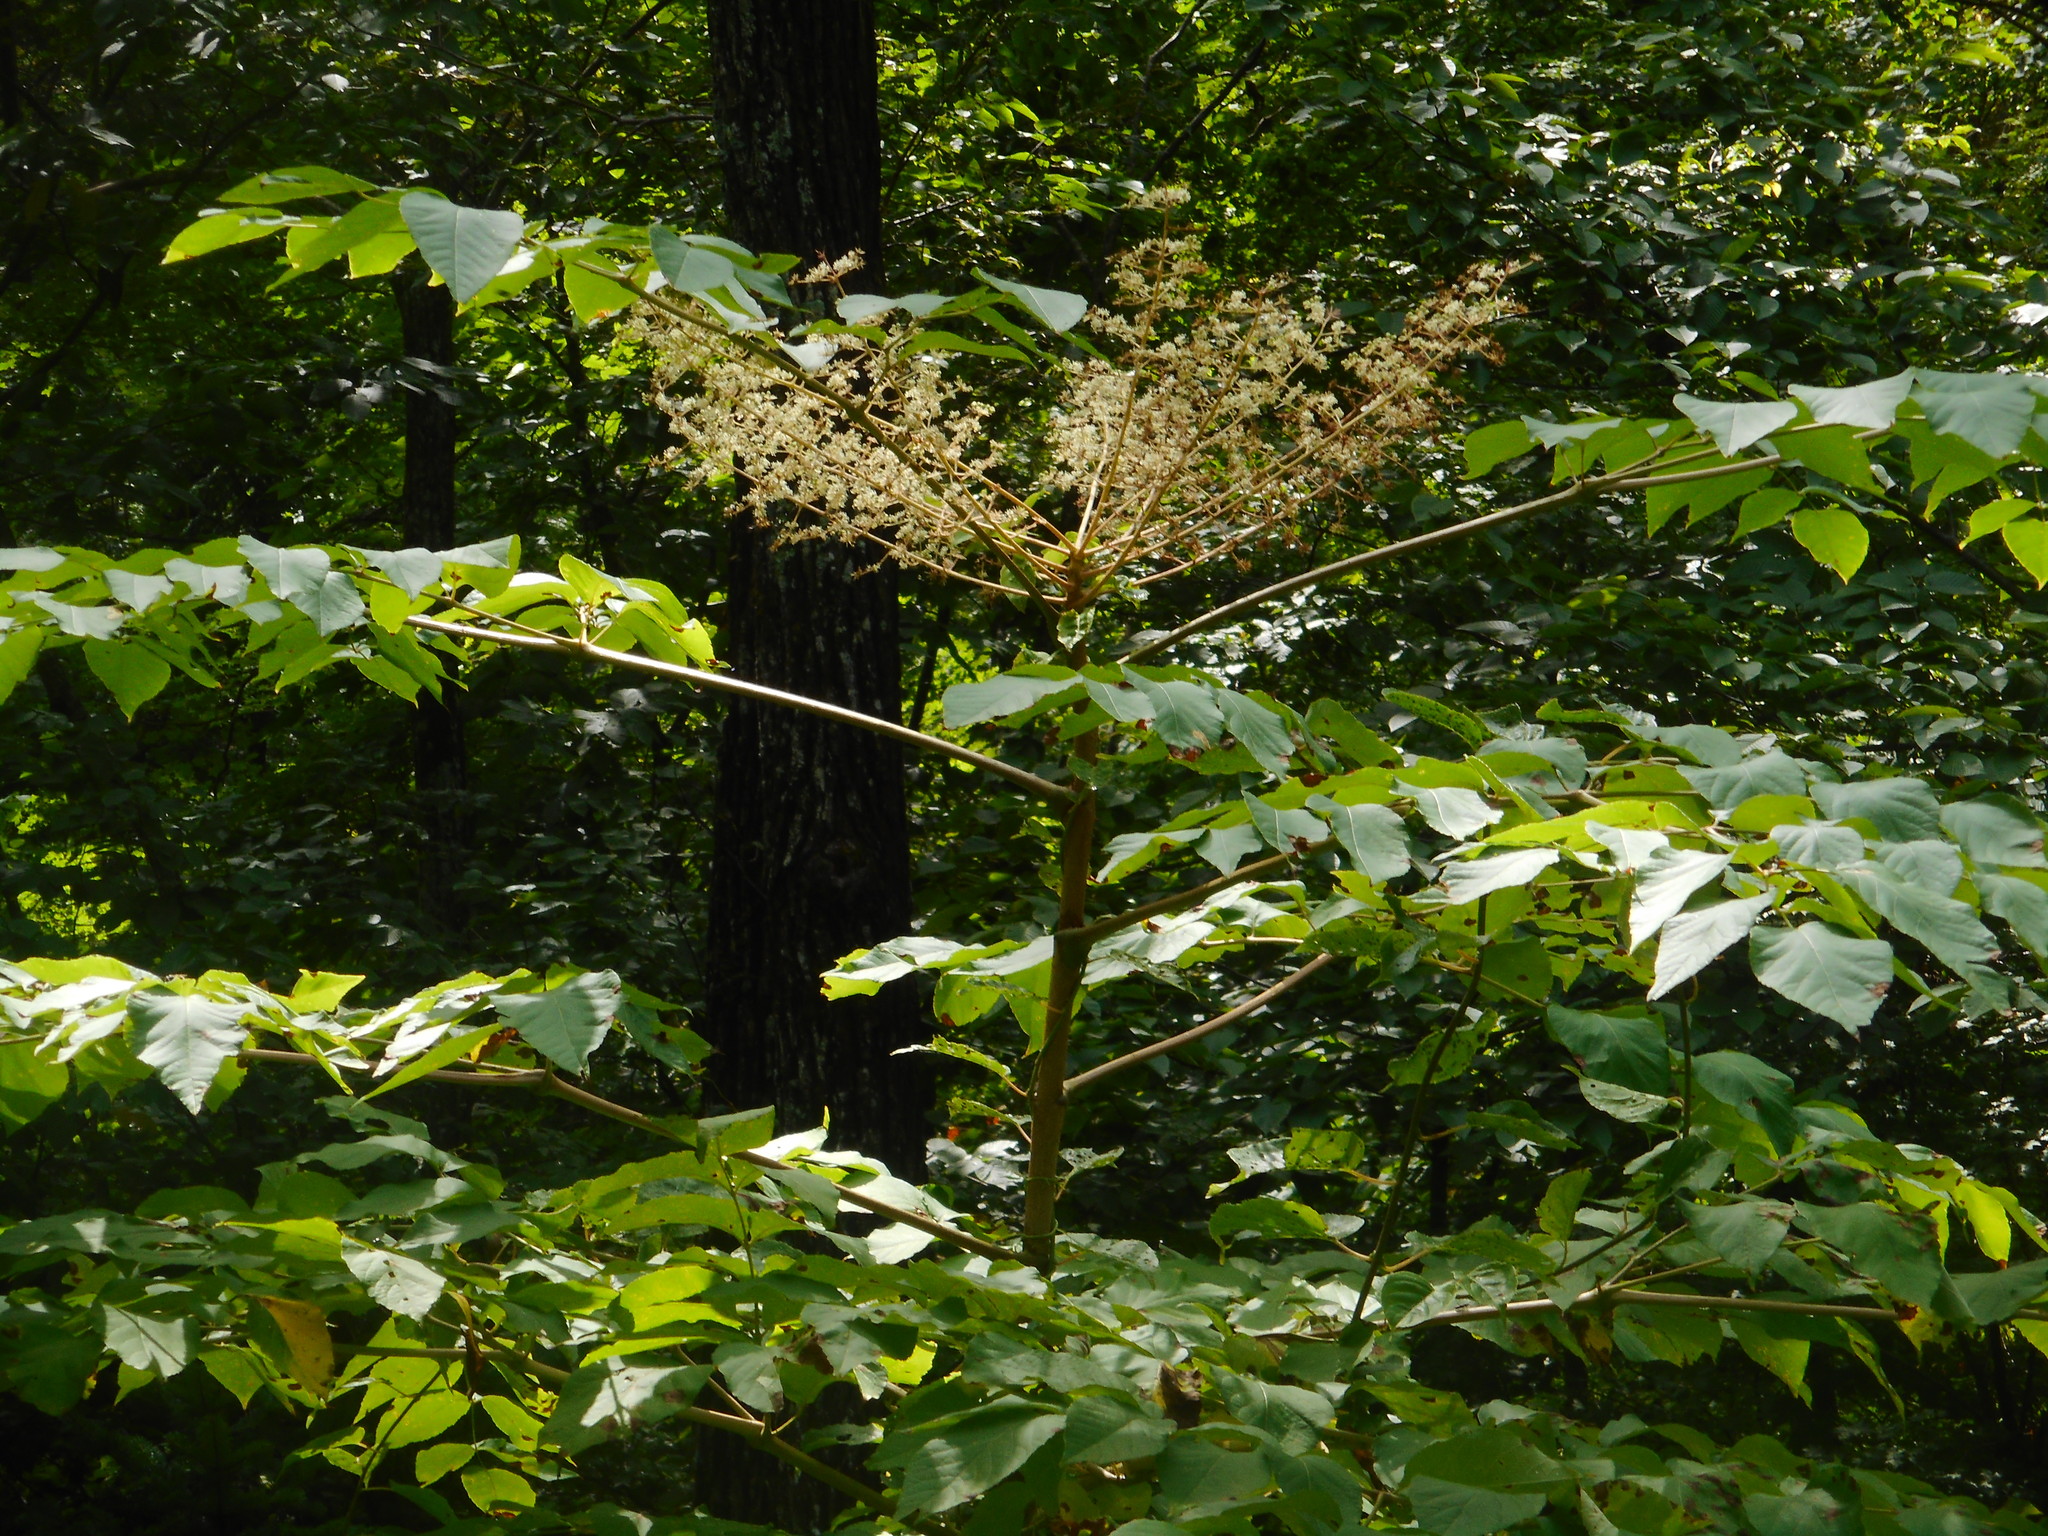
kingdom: Plantae
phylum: Tracheophyta
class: Magnoliopsida
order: Apiales
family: Araliaceae
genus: Aralia
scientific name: Aralia elata
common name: Japanese angelica-tree
